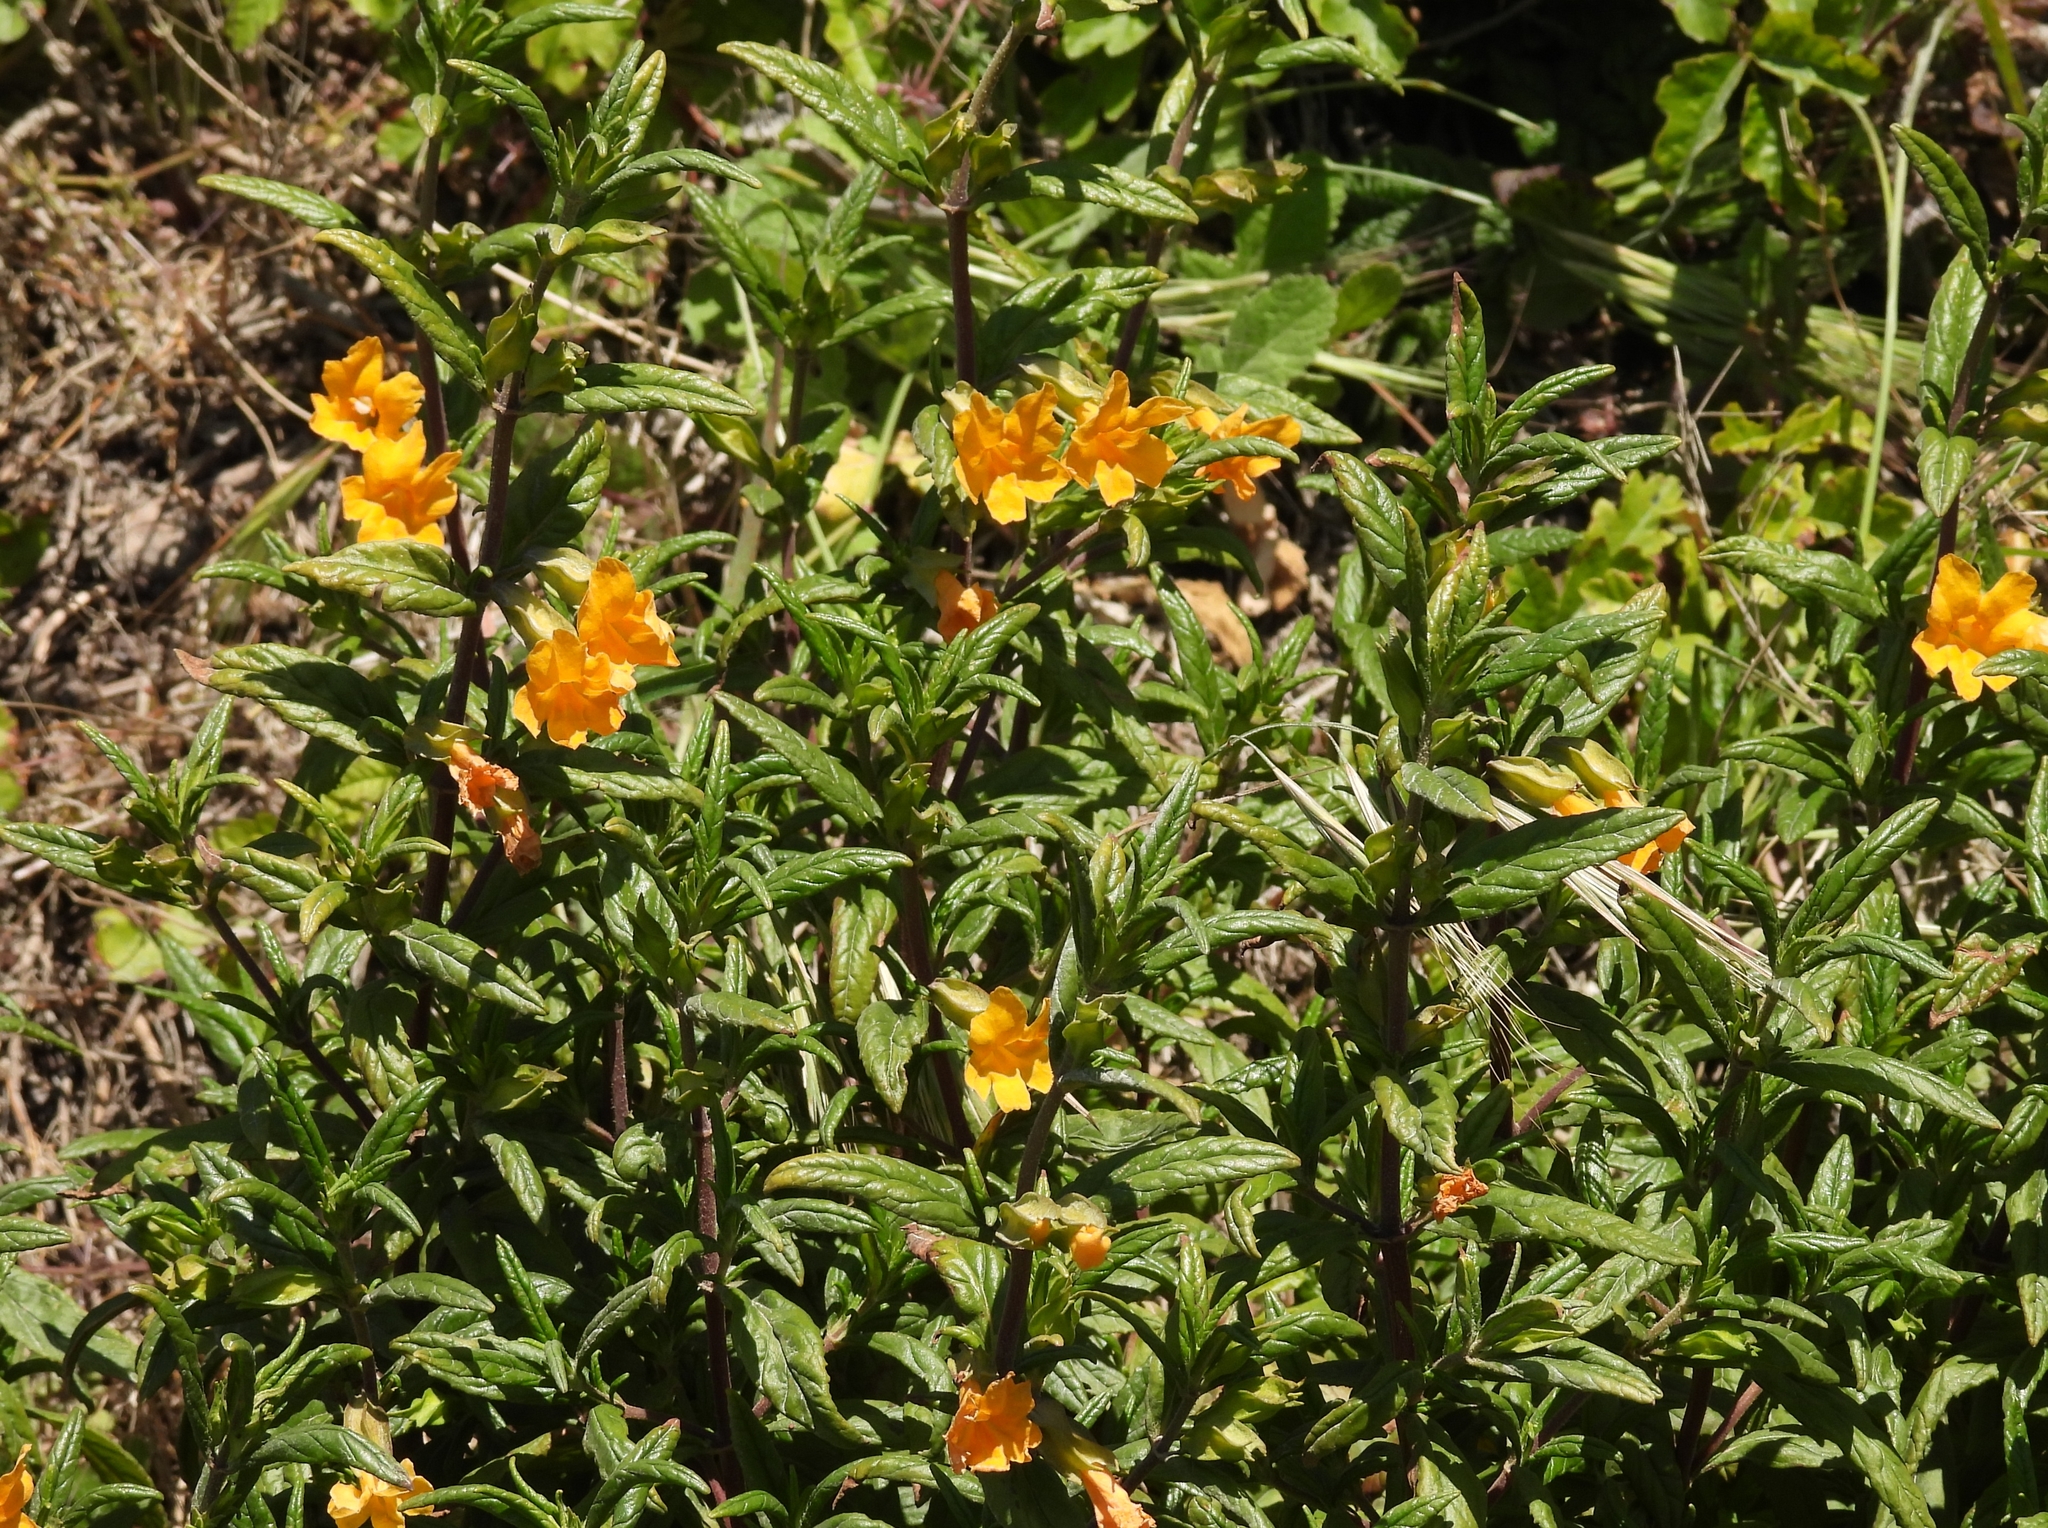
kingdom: Plantae
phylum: Tracheophyta
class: Magnoliopsida
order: Lamiales
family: Phrymaceae
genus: Diplacus
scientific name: Diplacus aurantiacus
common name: Bush monkey-flower
